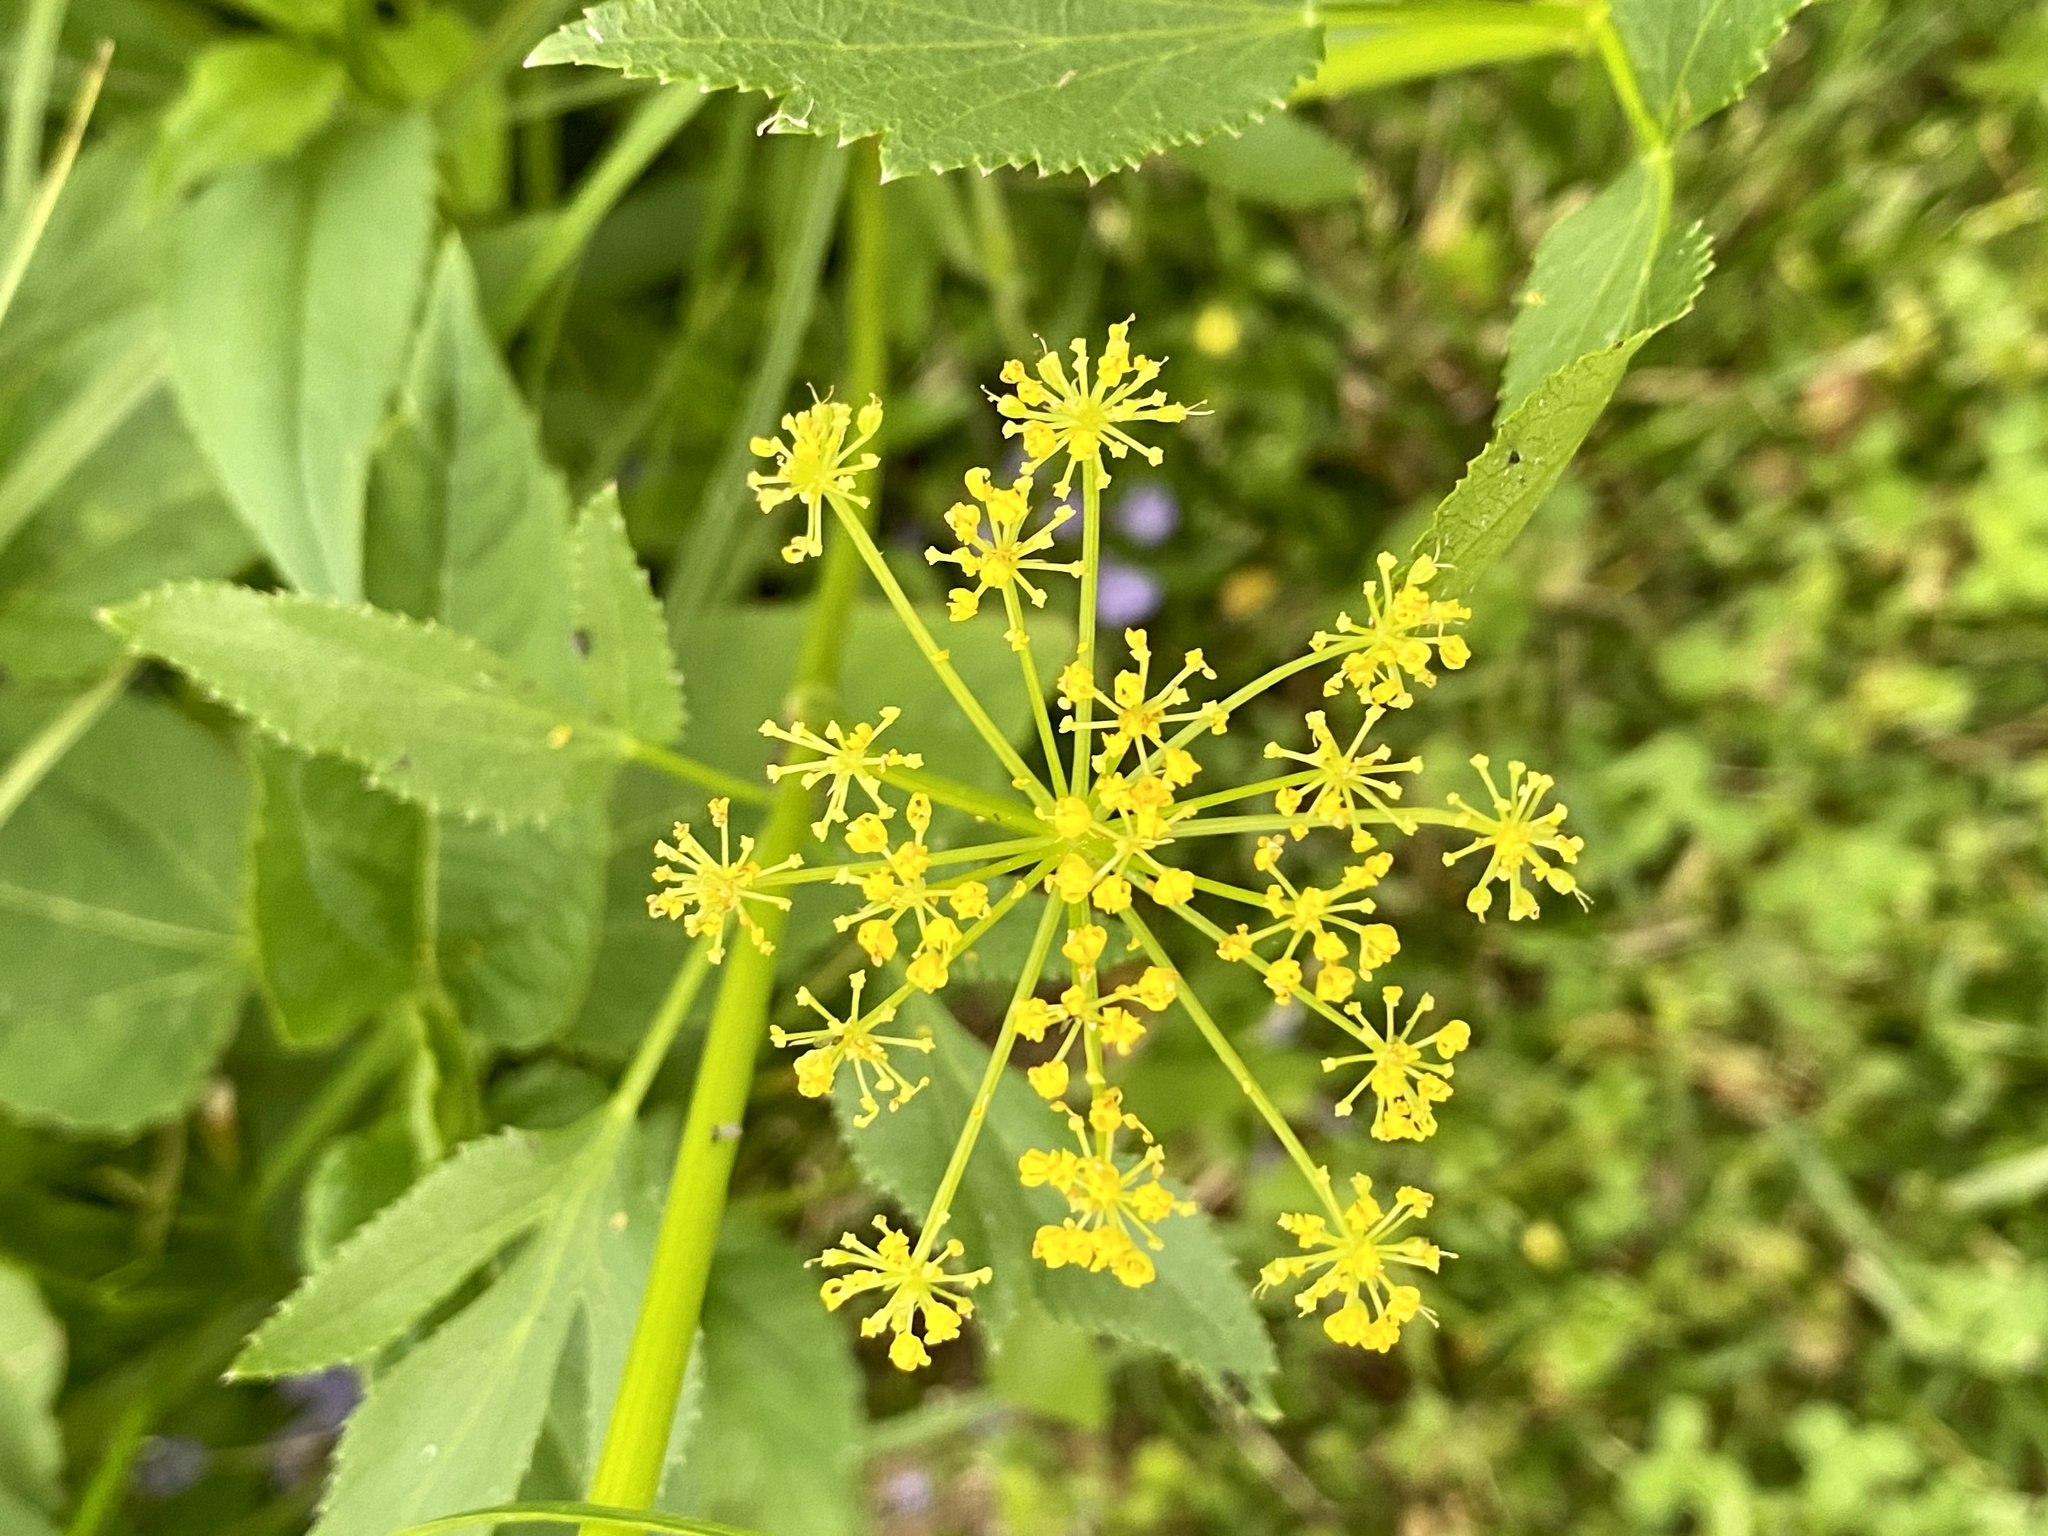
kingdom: Plantae
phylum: Tracheophyta
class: Magnoliopsida
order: Apiales
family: Apiaceae
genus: Zizia
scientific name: Zizia aurea
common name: Golden alexanders
